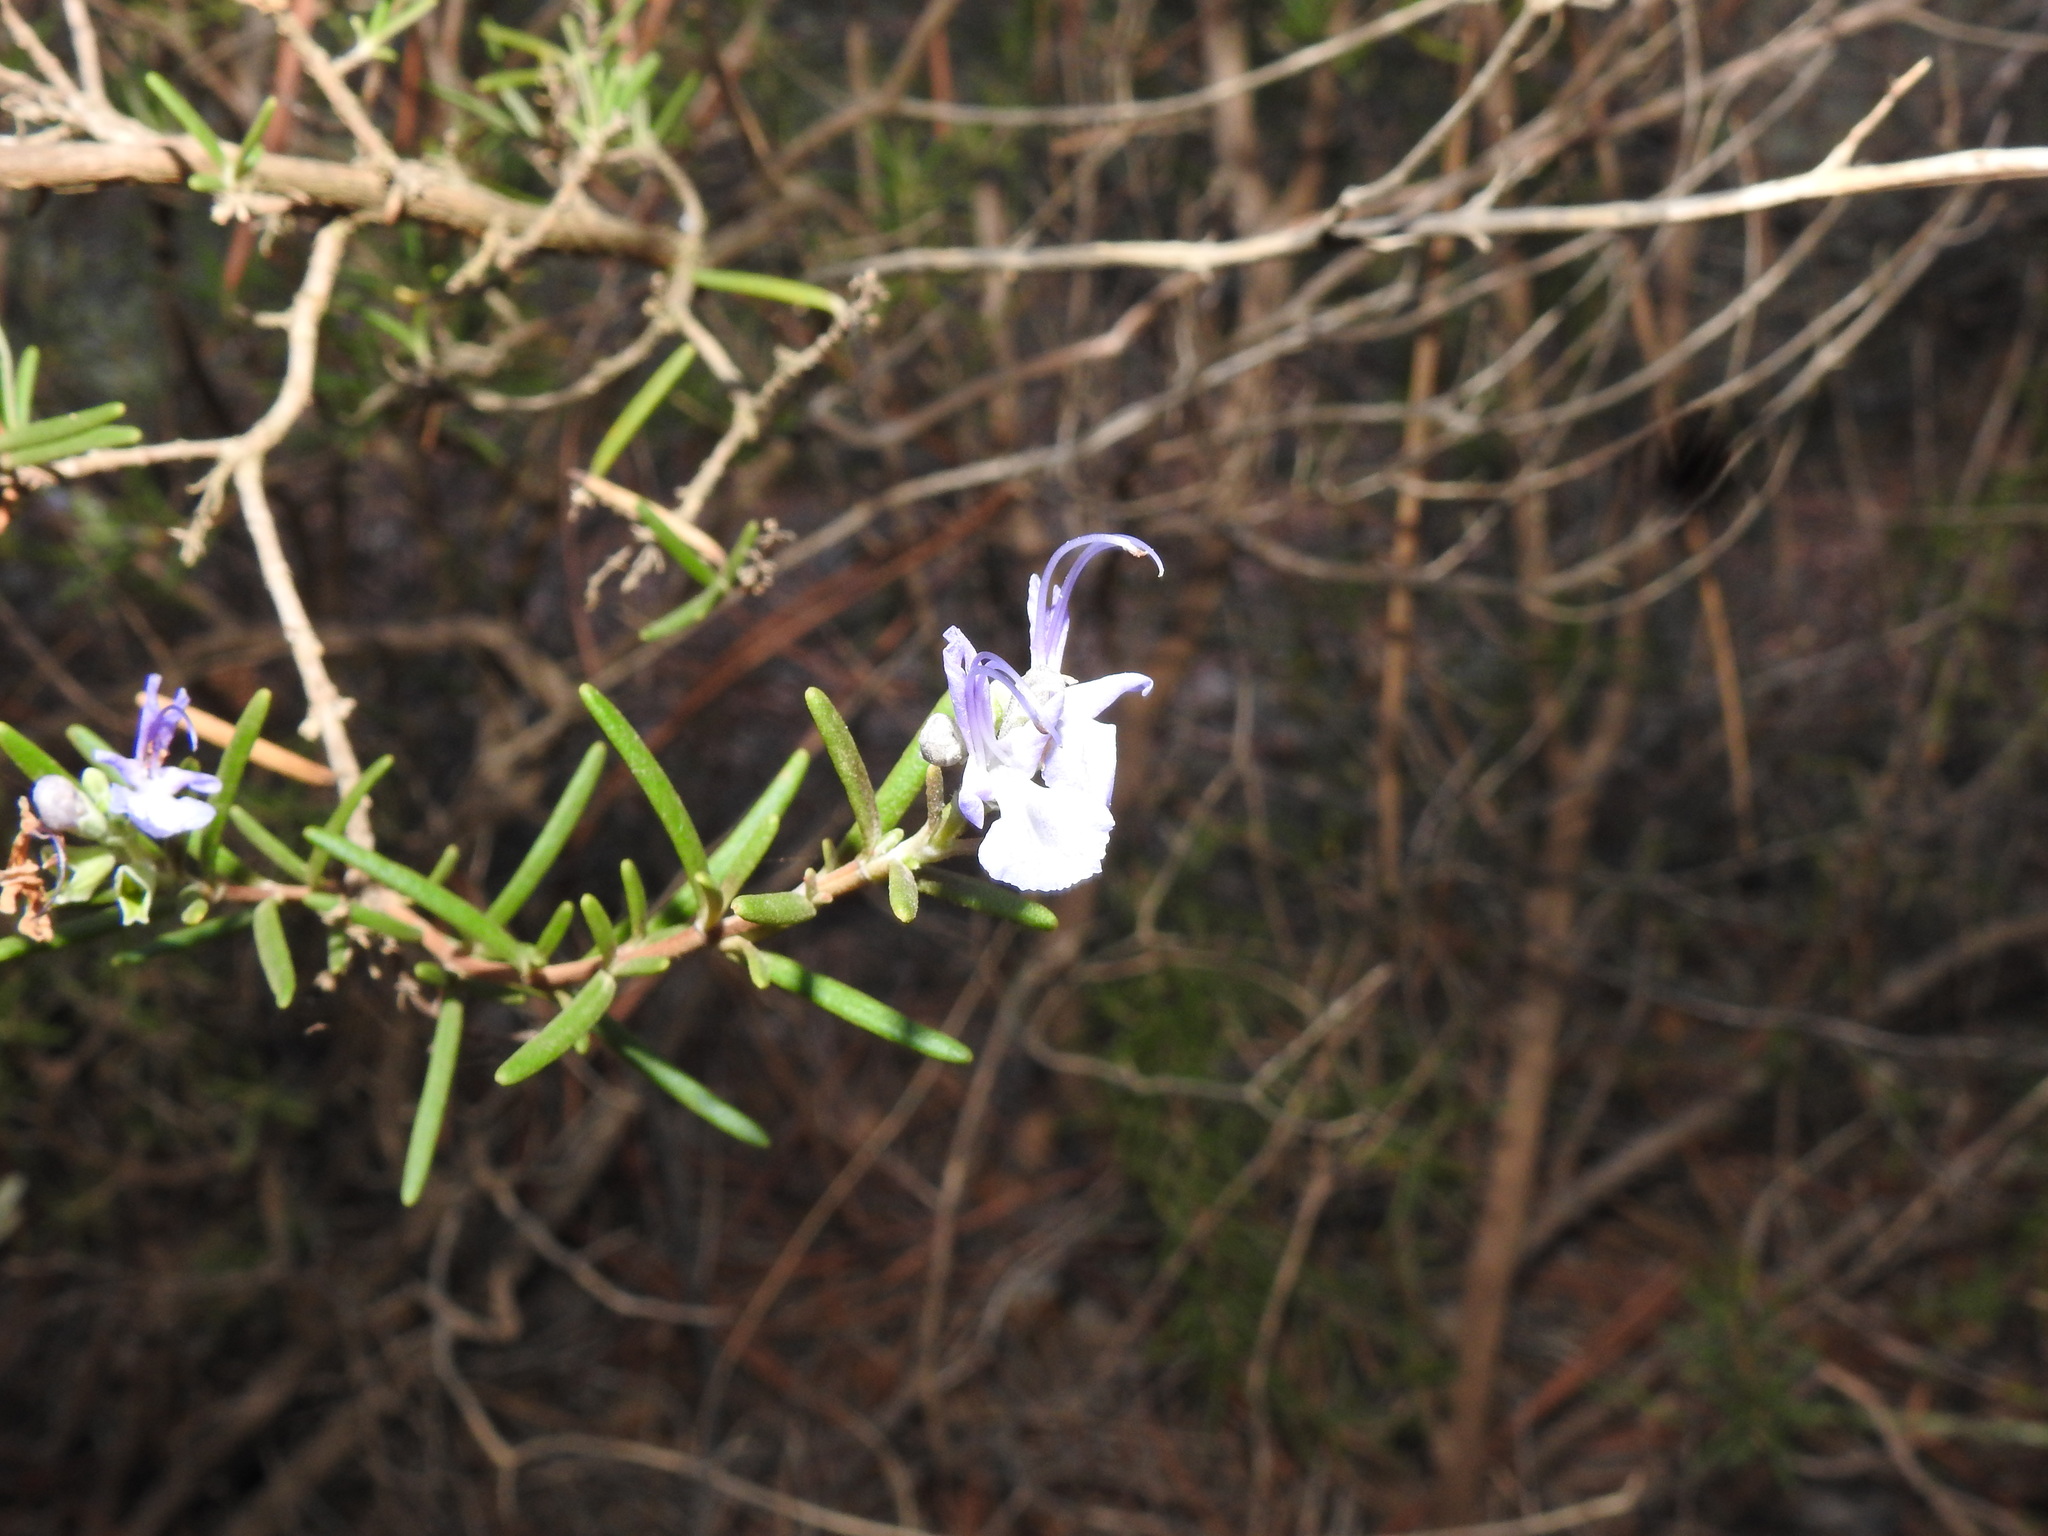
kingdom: Plantae
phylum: Tracheophyta
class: Magnoliopsida
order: Lamiales
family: Lamiaceae
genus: Salvia
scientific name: Salvia rosmarinus
